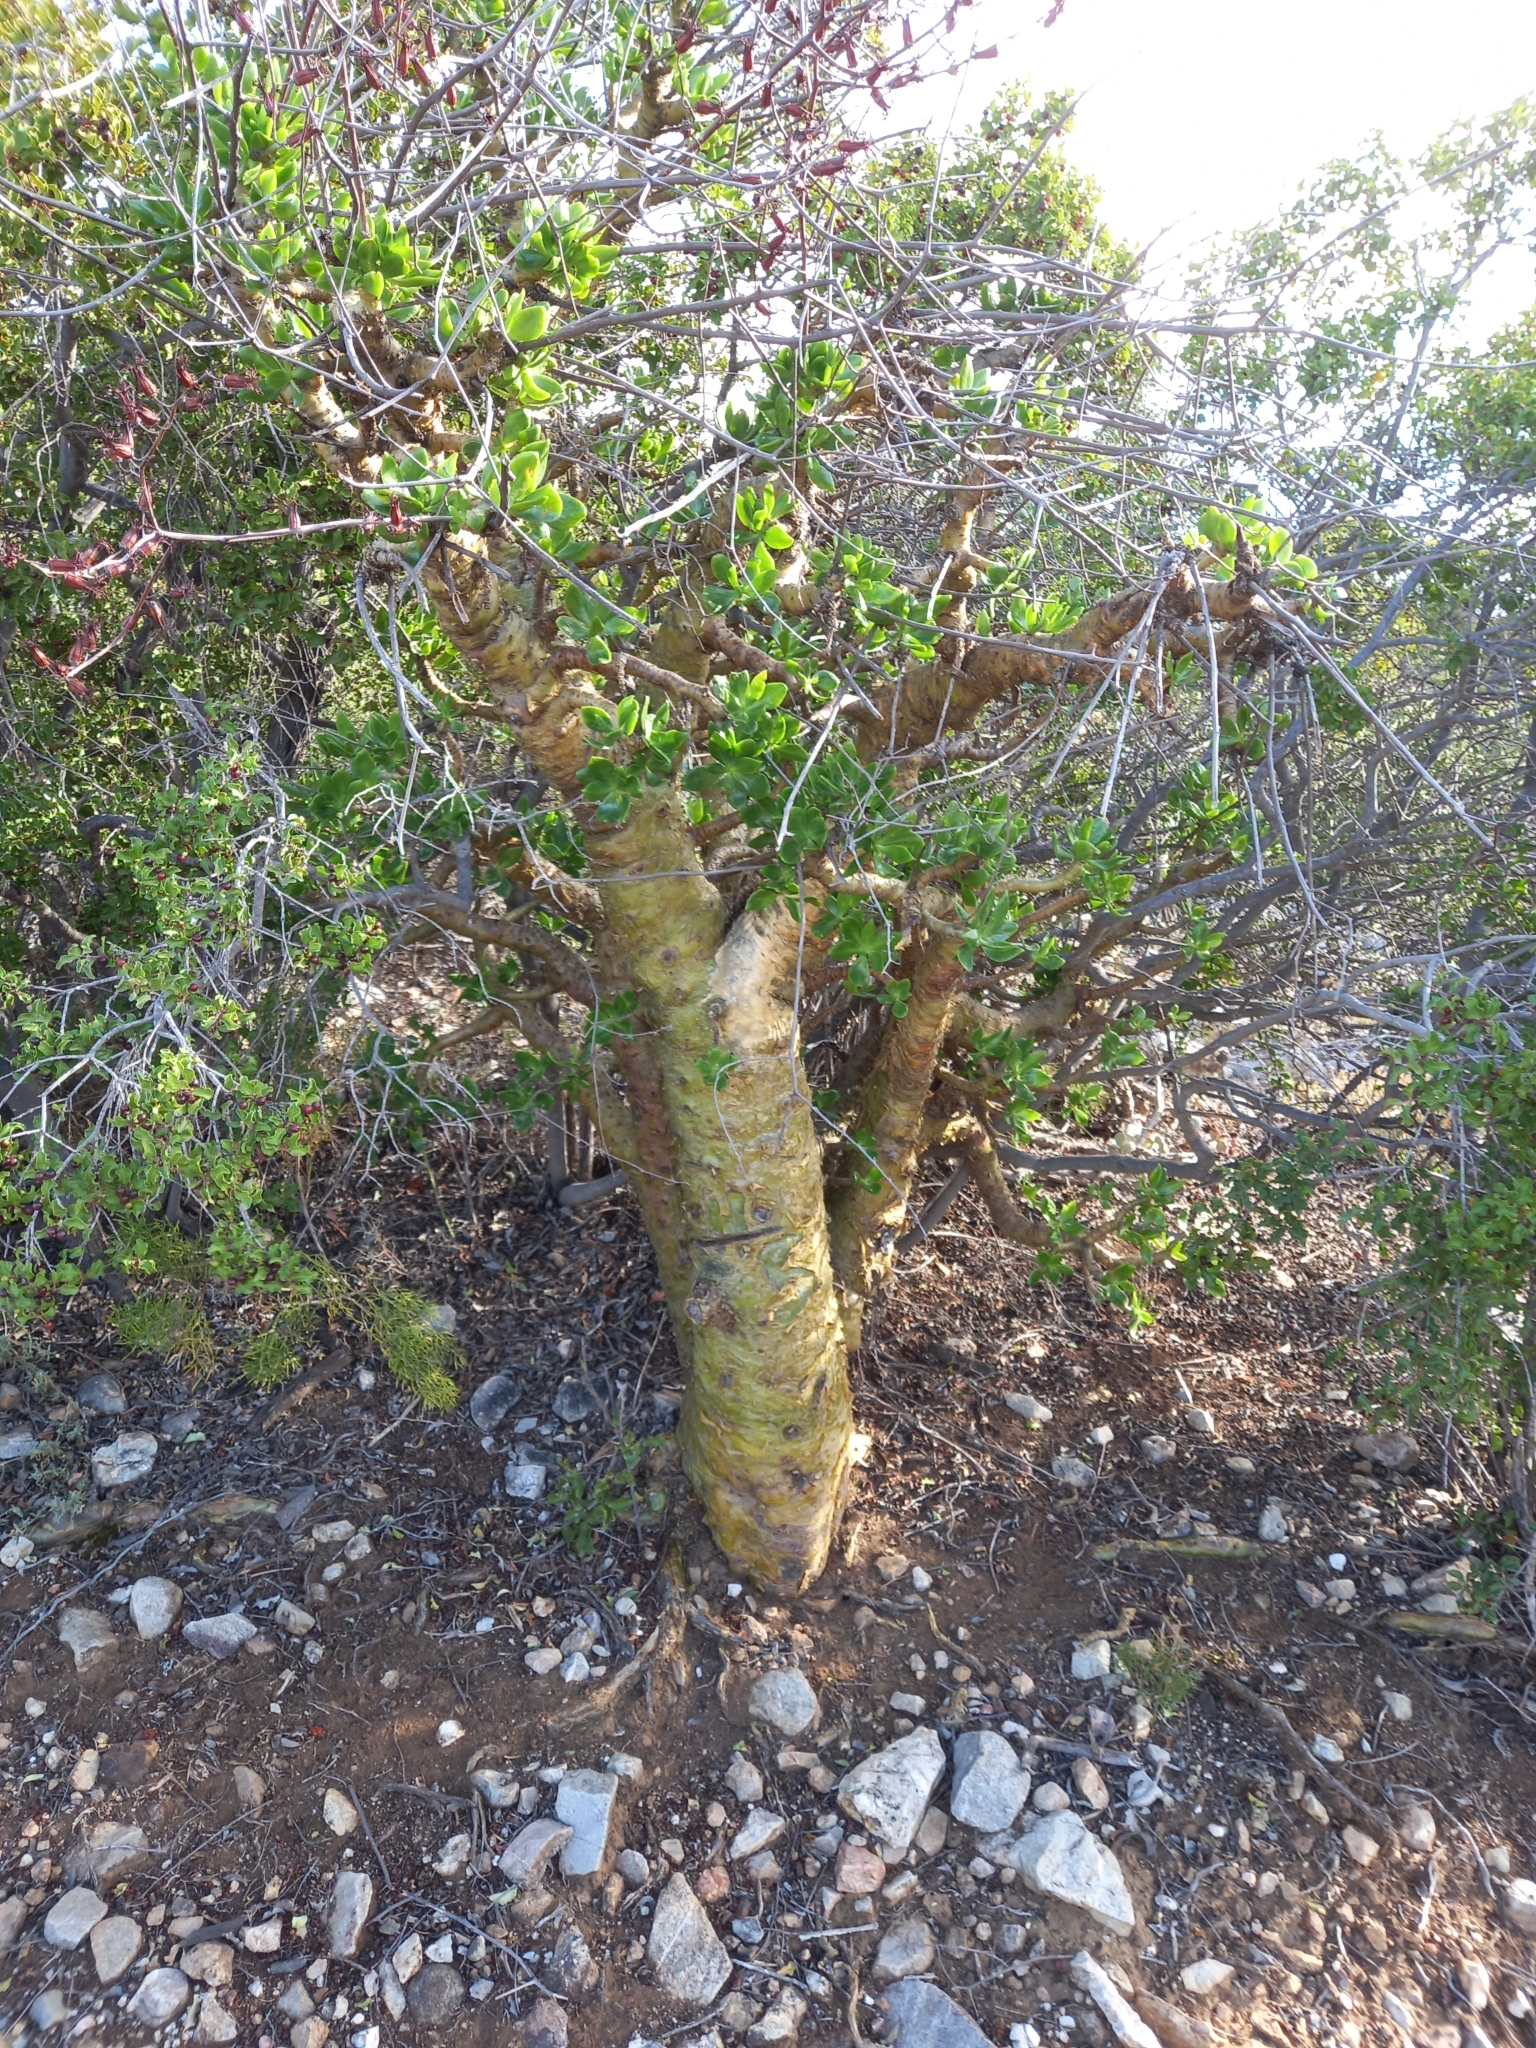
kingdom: Plantae
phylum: Tracheophyta
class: Magnoliopsida
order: Saxifragales
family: Crassulaceae
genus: Tylecodon
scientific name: Tylecodon paniculatus
